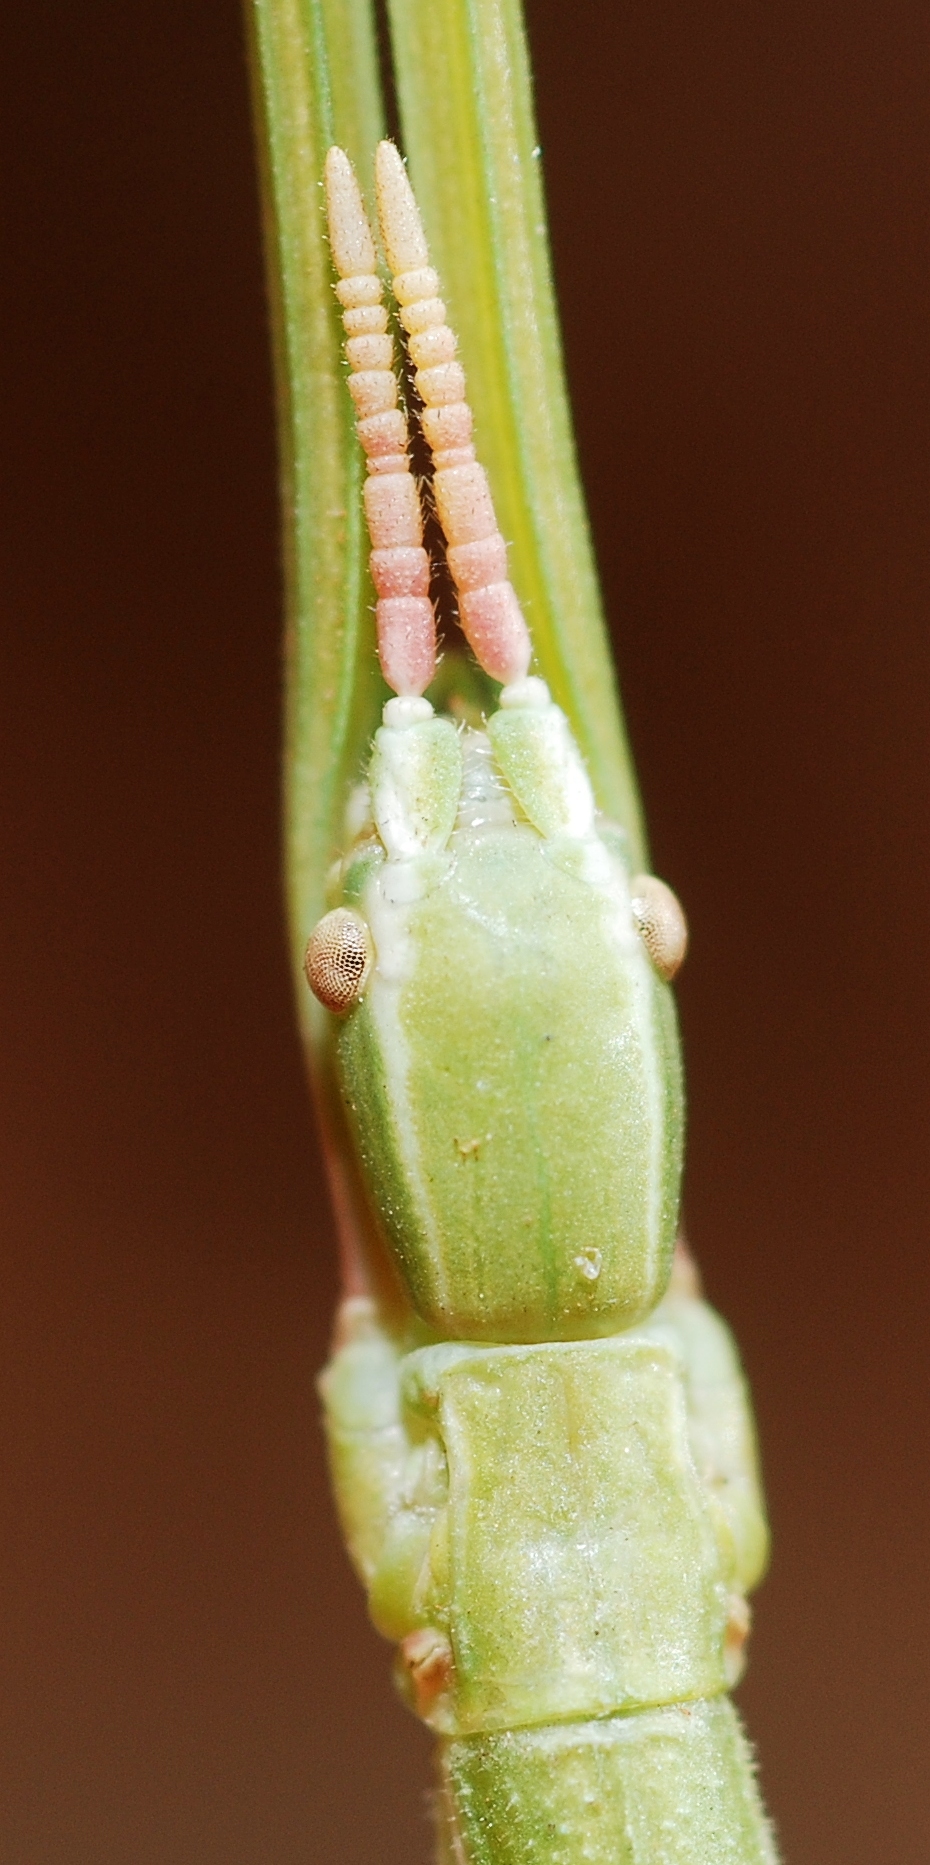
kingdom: Animalia
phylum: Arthropoda
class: Insecta
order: Phasmida
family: Bacillidae
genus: Pijnackeria
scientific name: Pijnackeria masettii
